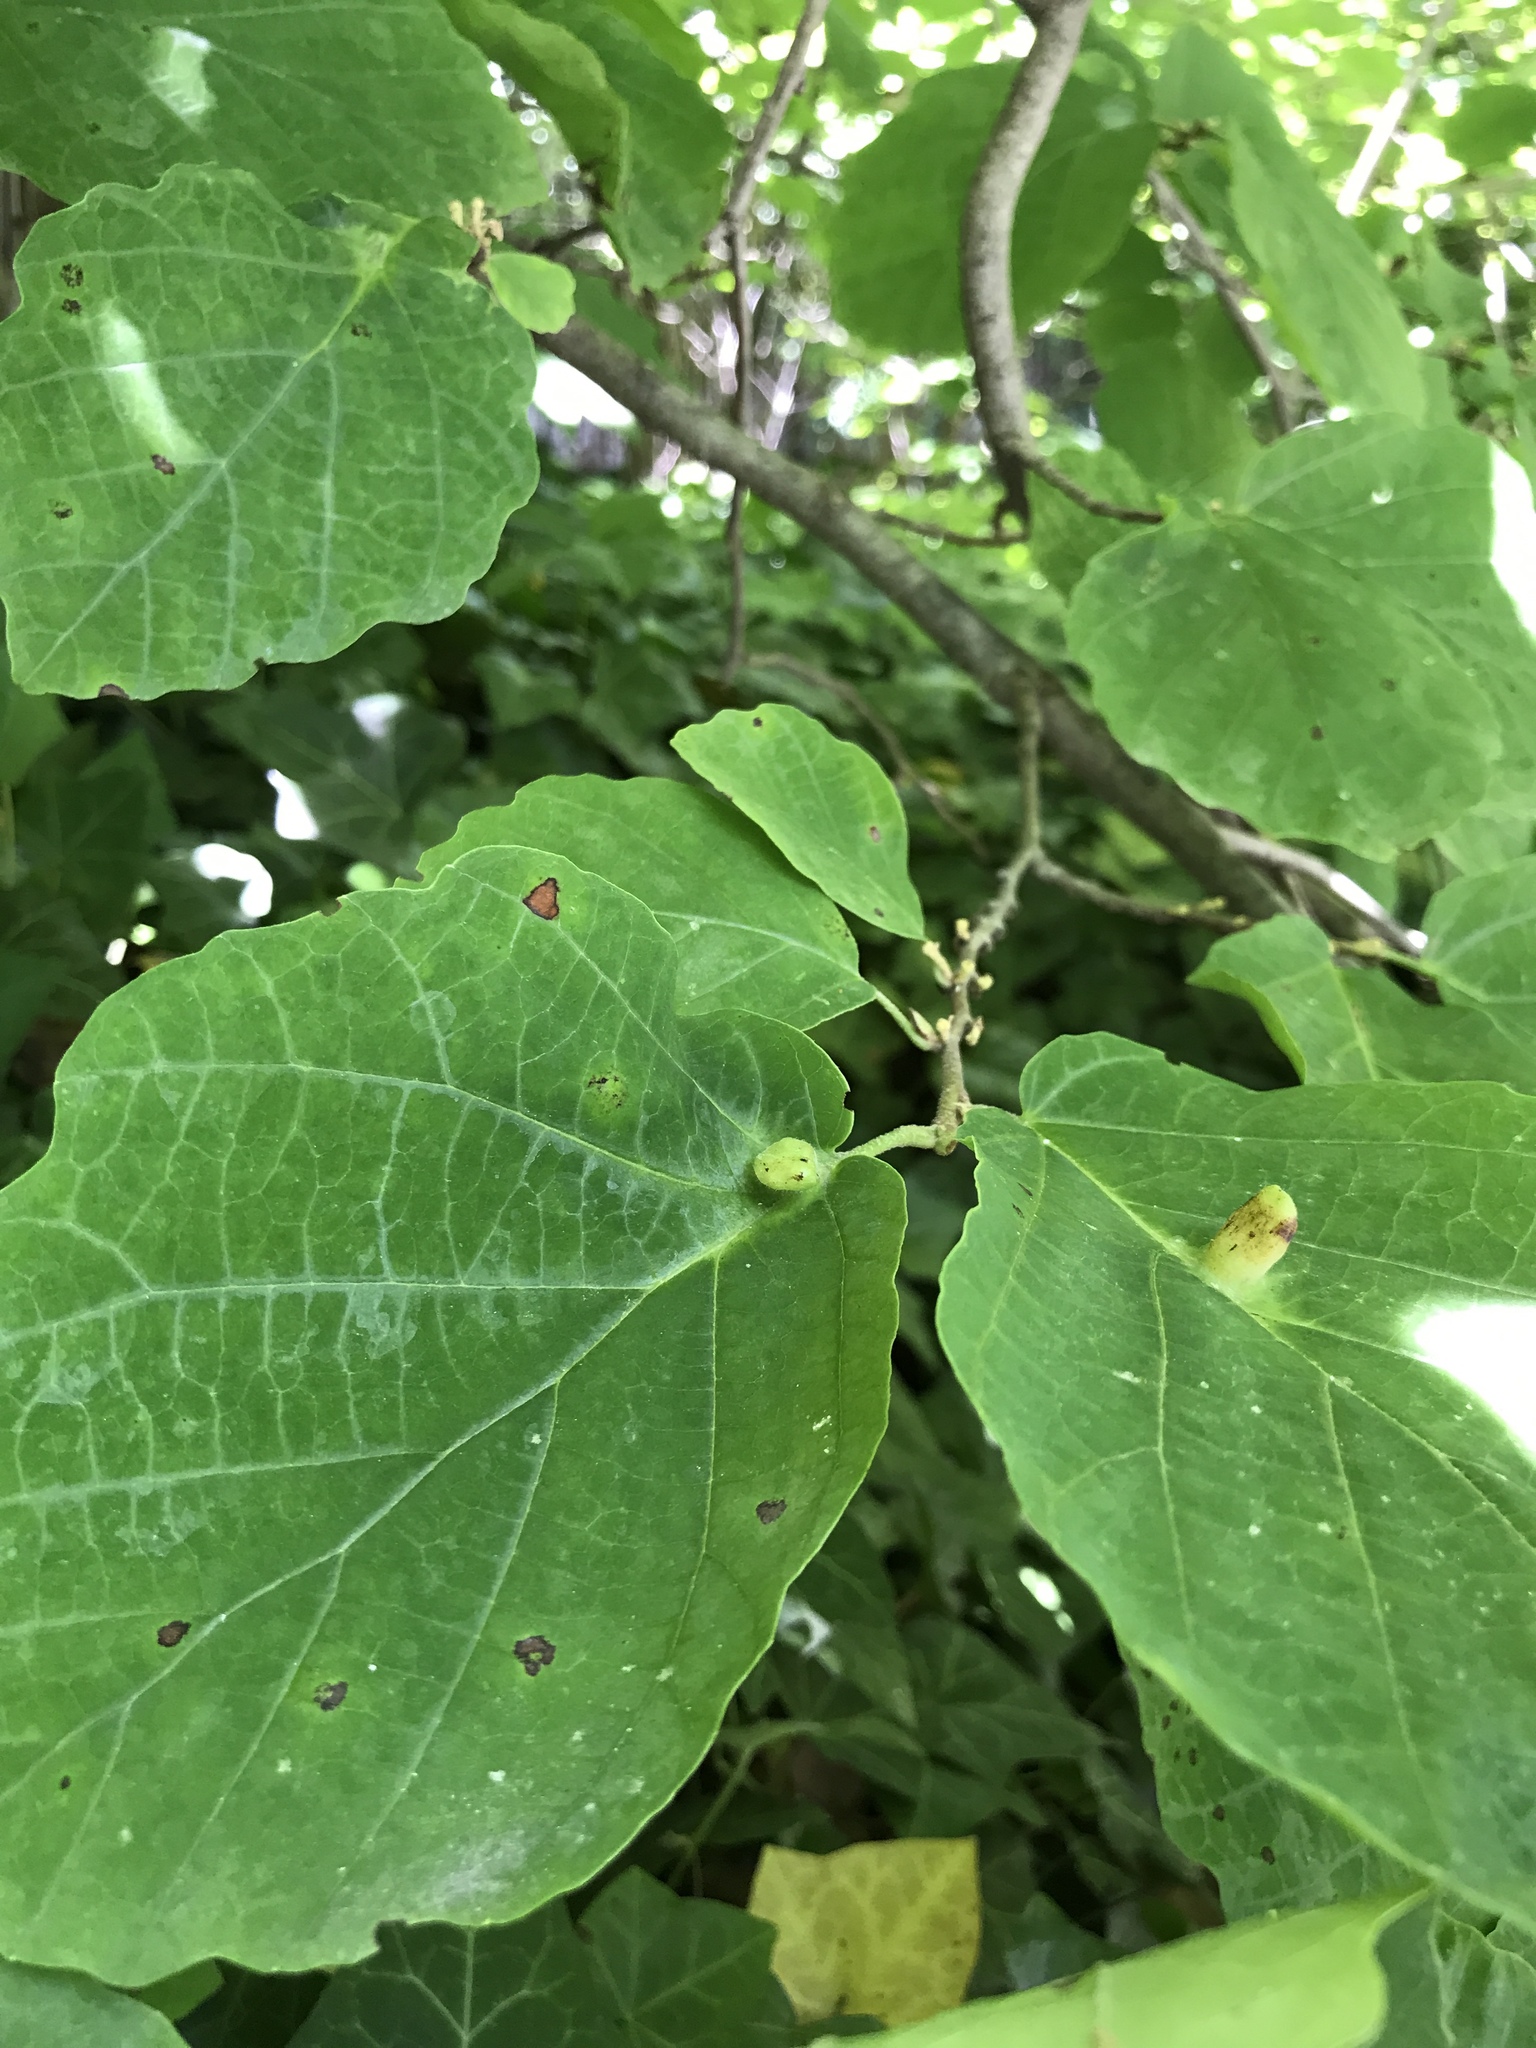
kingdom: Animalia
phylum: Arthropoda
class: Insecta
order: Hemiptera
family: Aphididae
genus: Hormaphis
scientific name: Hormaphis hamamelidis
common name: Witch-hazel cone gall aphid
